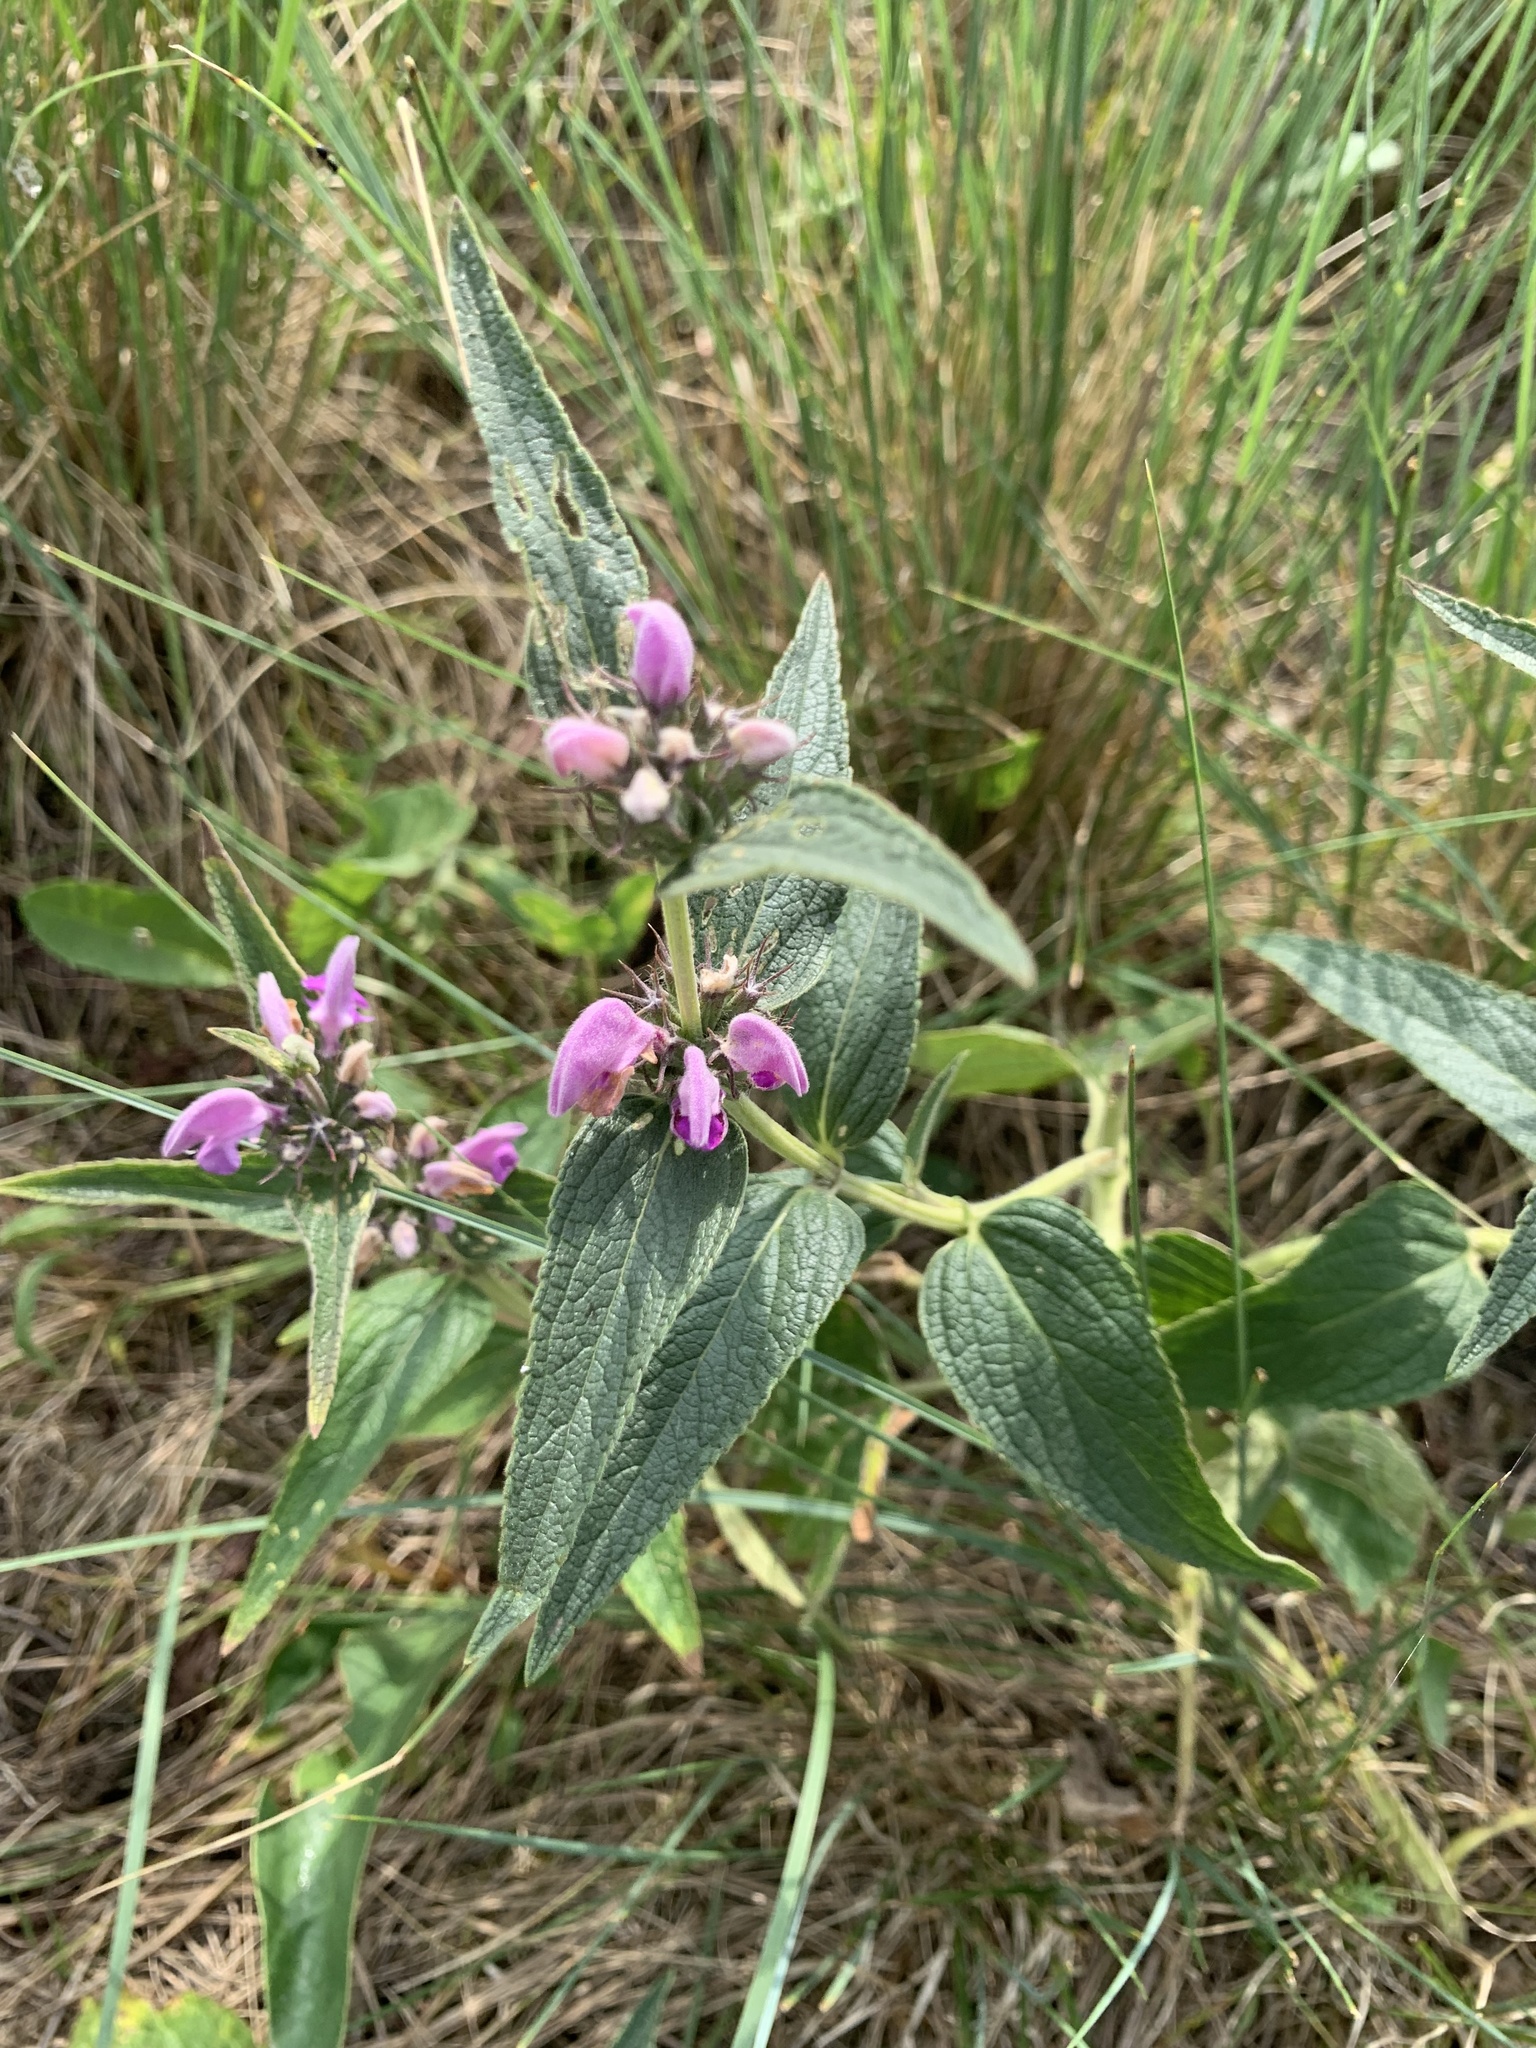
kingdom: Plantae
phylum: Tracheophyta
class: Magnoliopsida
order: Lamiales
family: Lamiaceae
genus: Phlomis
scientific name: Phlomis herba-venti
